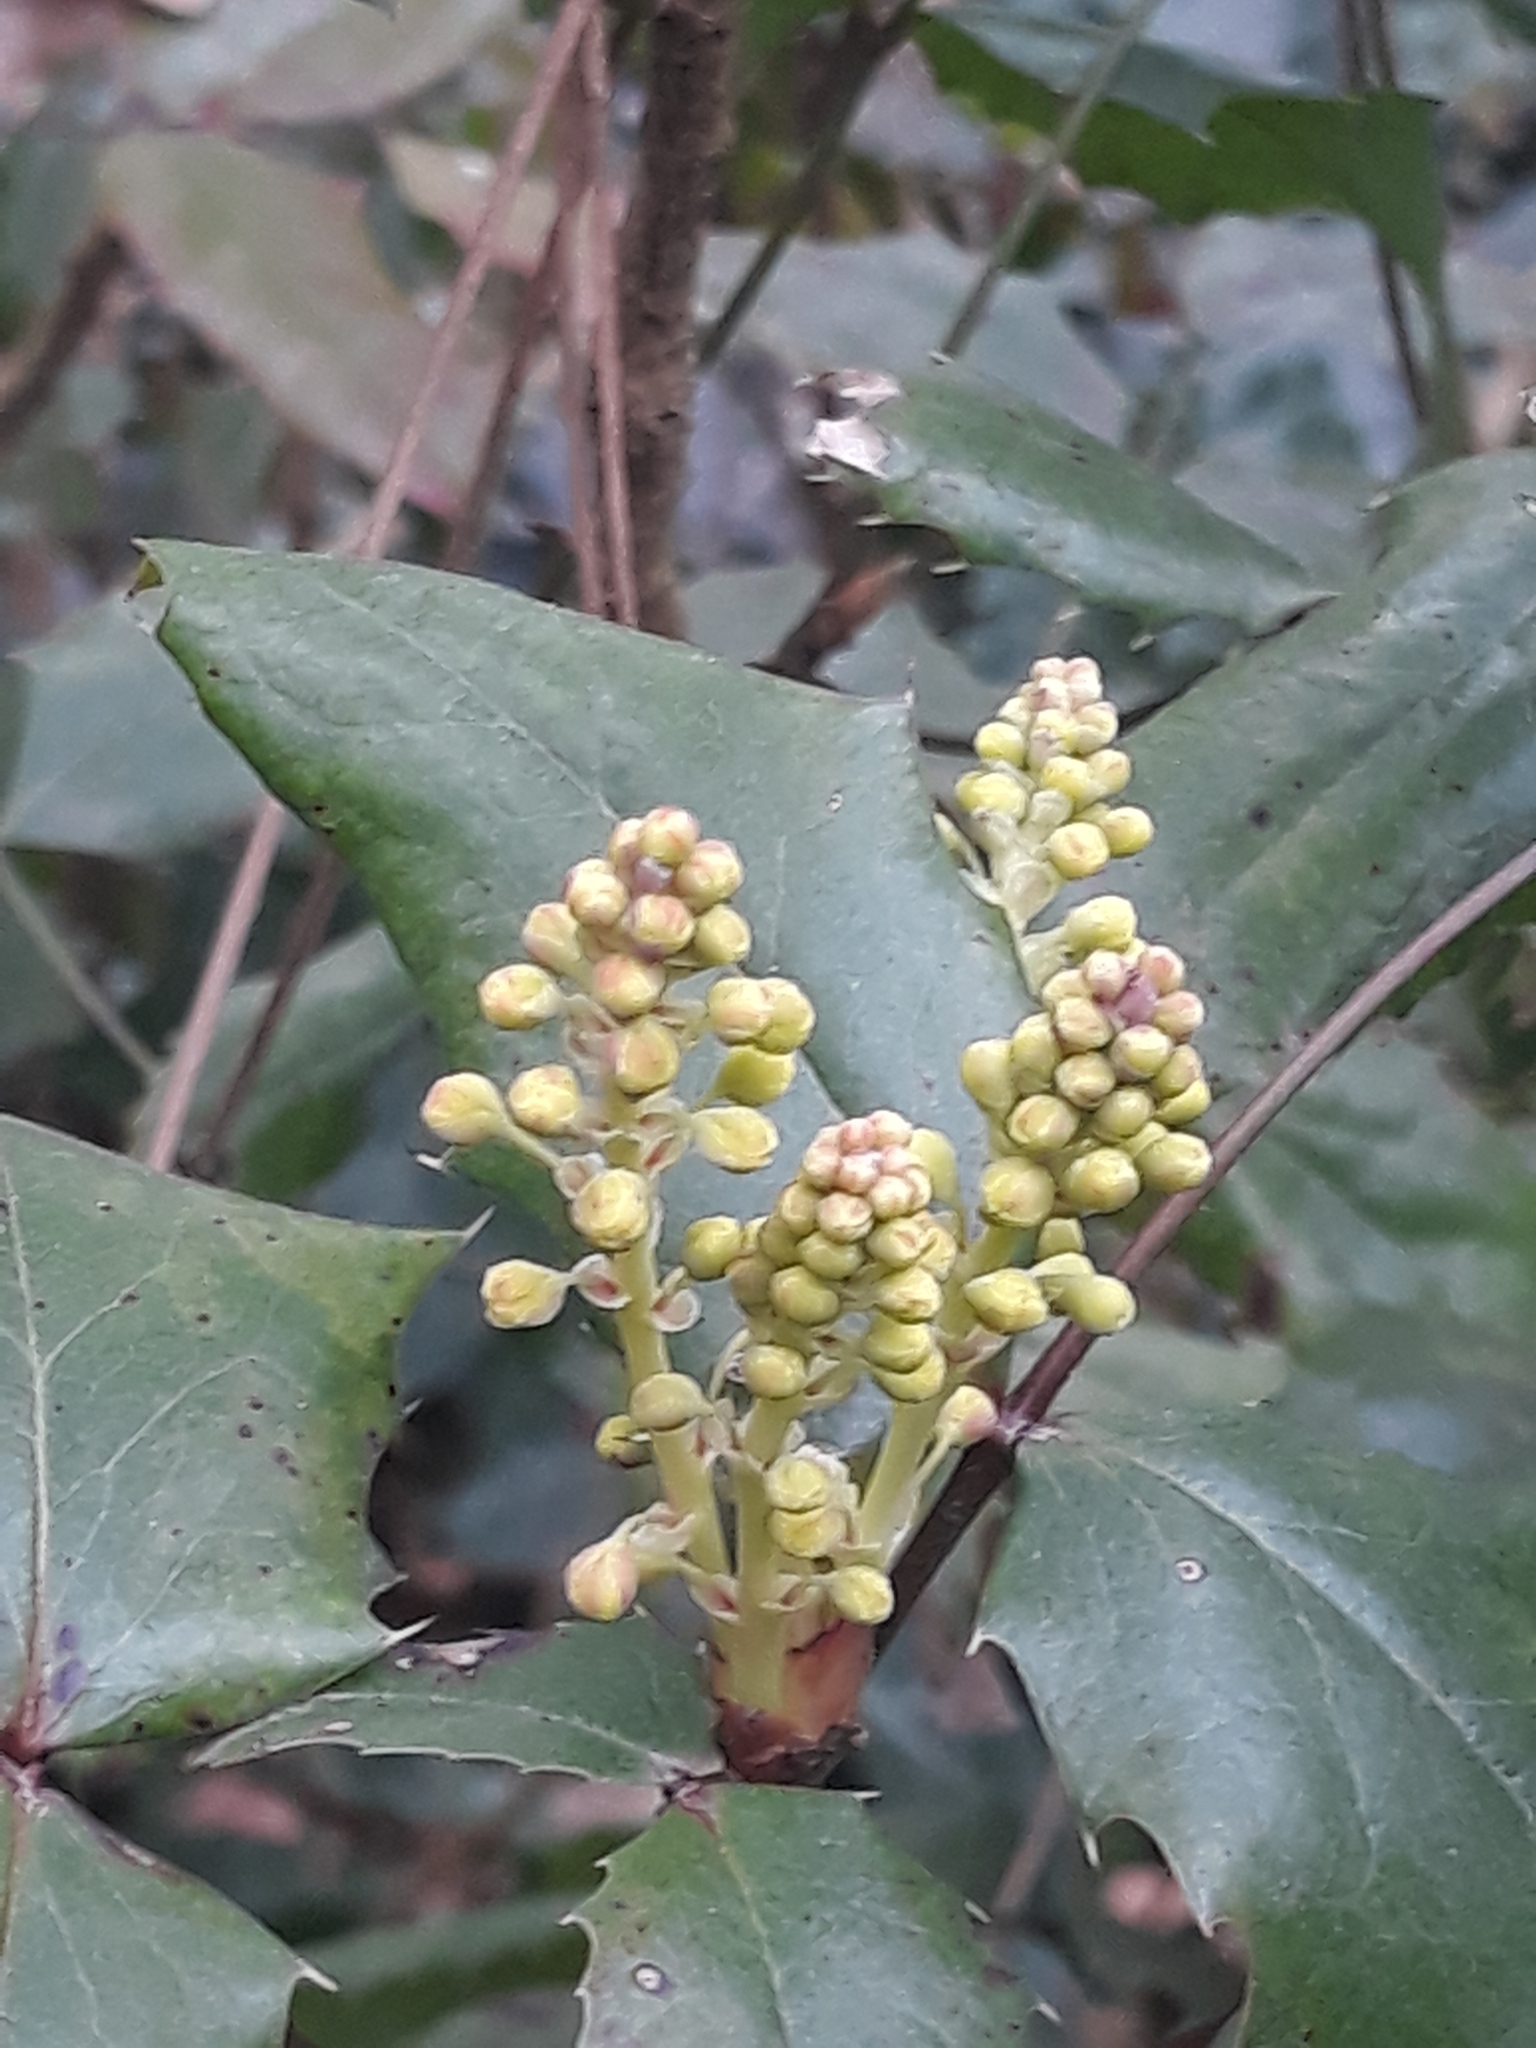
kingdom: Plantae
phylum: Tracheophyta
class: Magnoliopsida
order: Ranunculales
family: Berberidaceae
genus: Mahonia
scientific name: Mahonia aquifolium
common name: Oregon-grape
